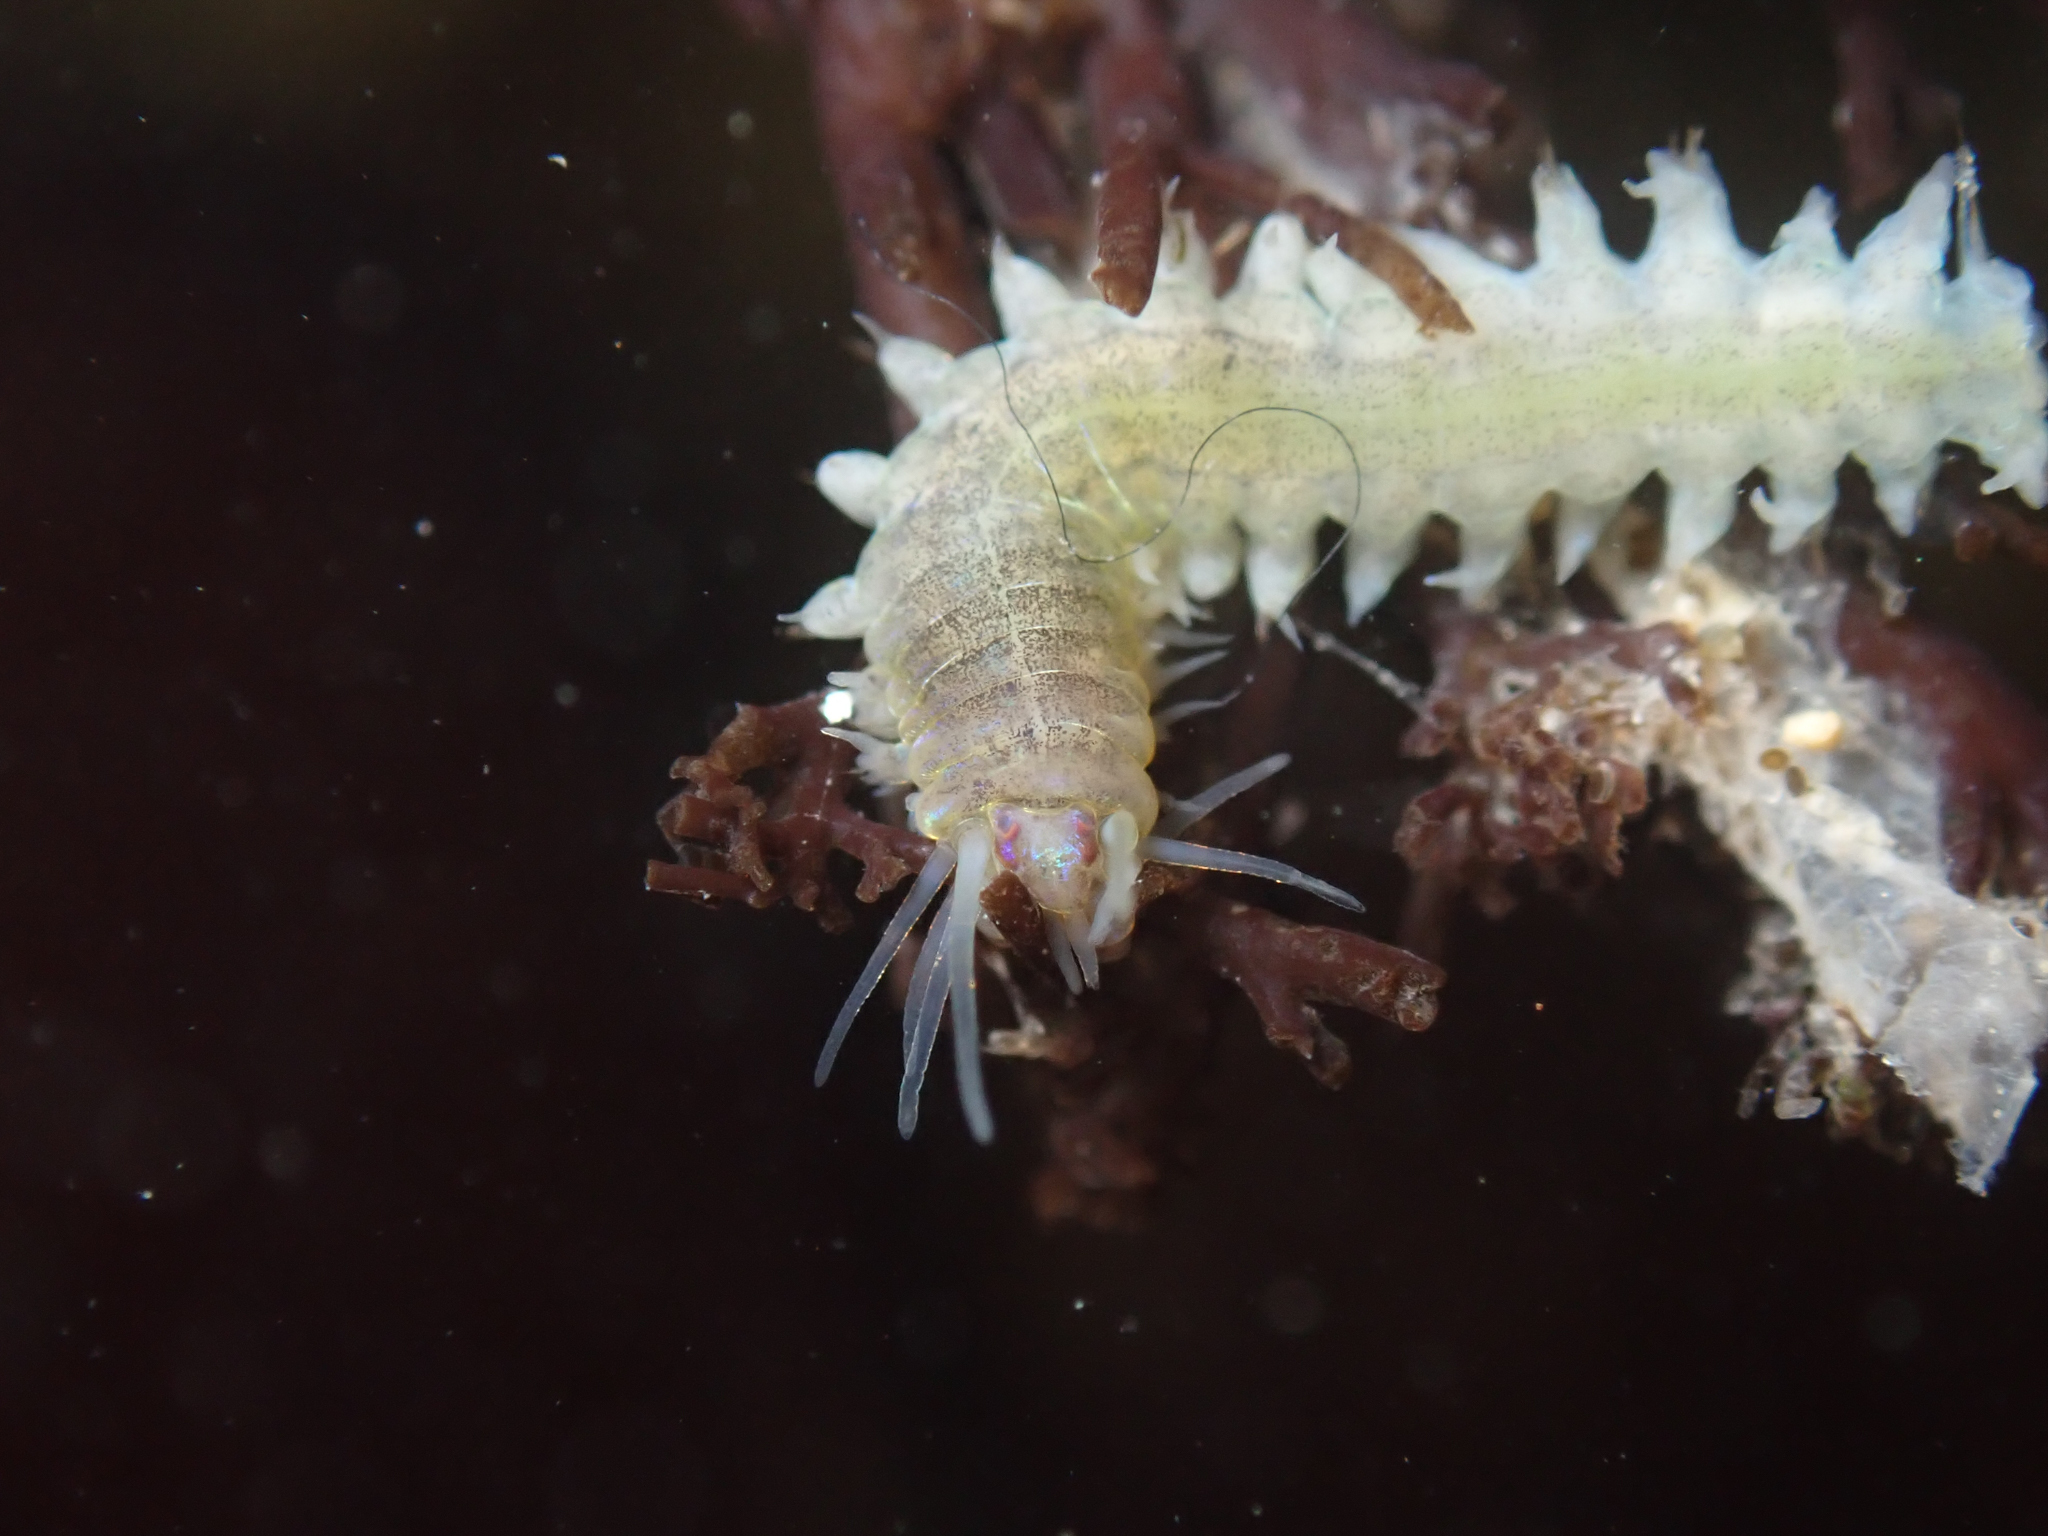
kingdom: Animalia
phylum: Annelida
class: Polychaeta
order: Phyllodocida
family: Nereididae
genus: Platynereis
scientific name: Platynereis bicanaliculata
